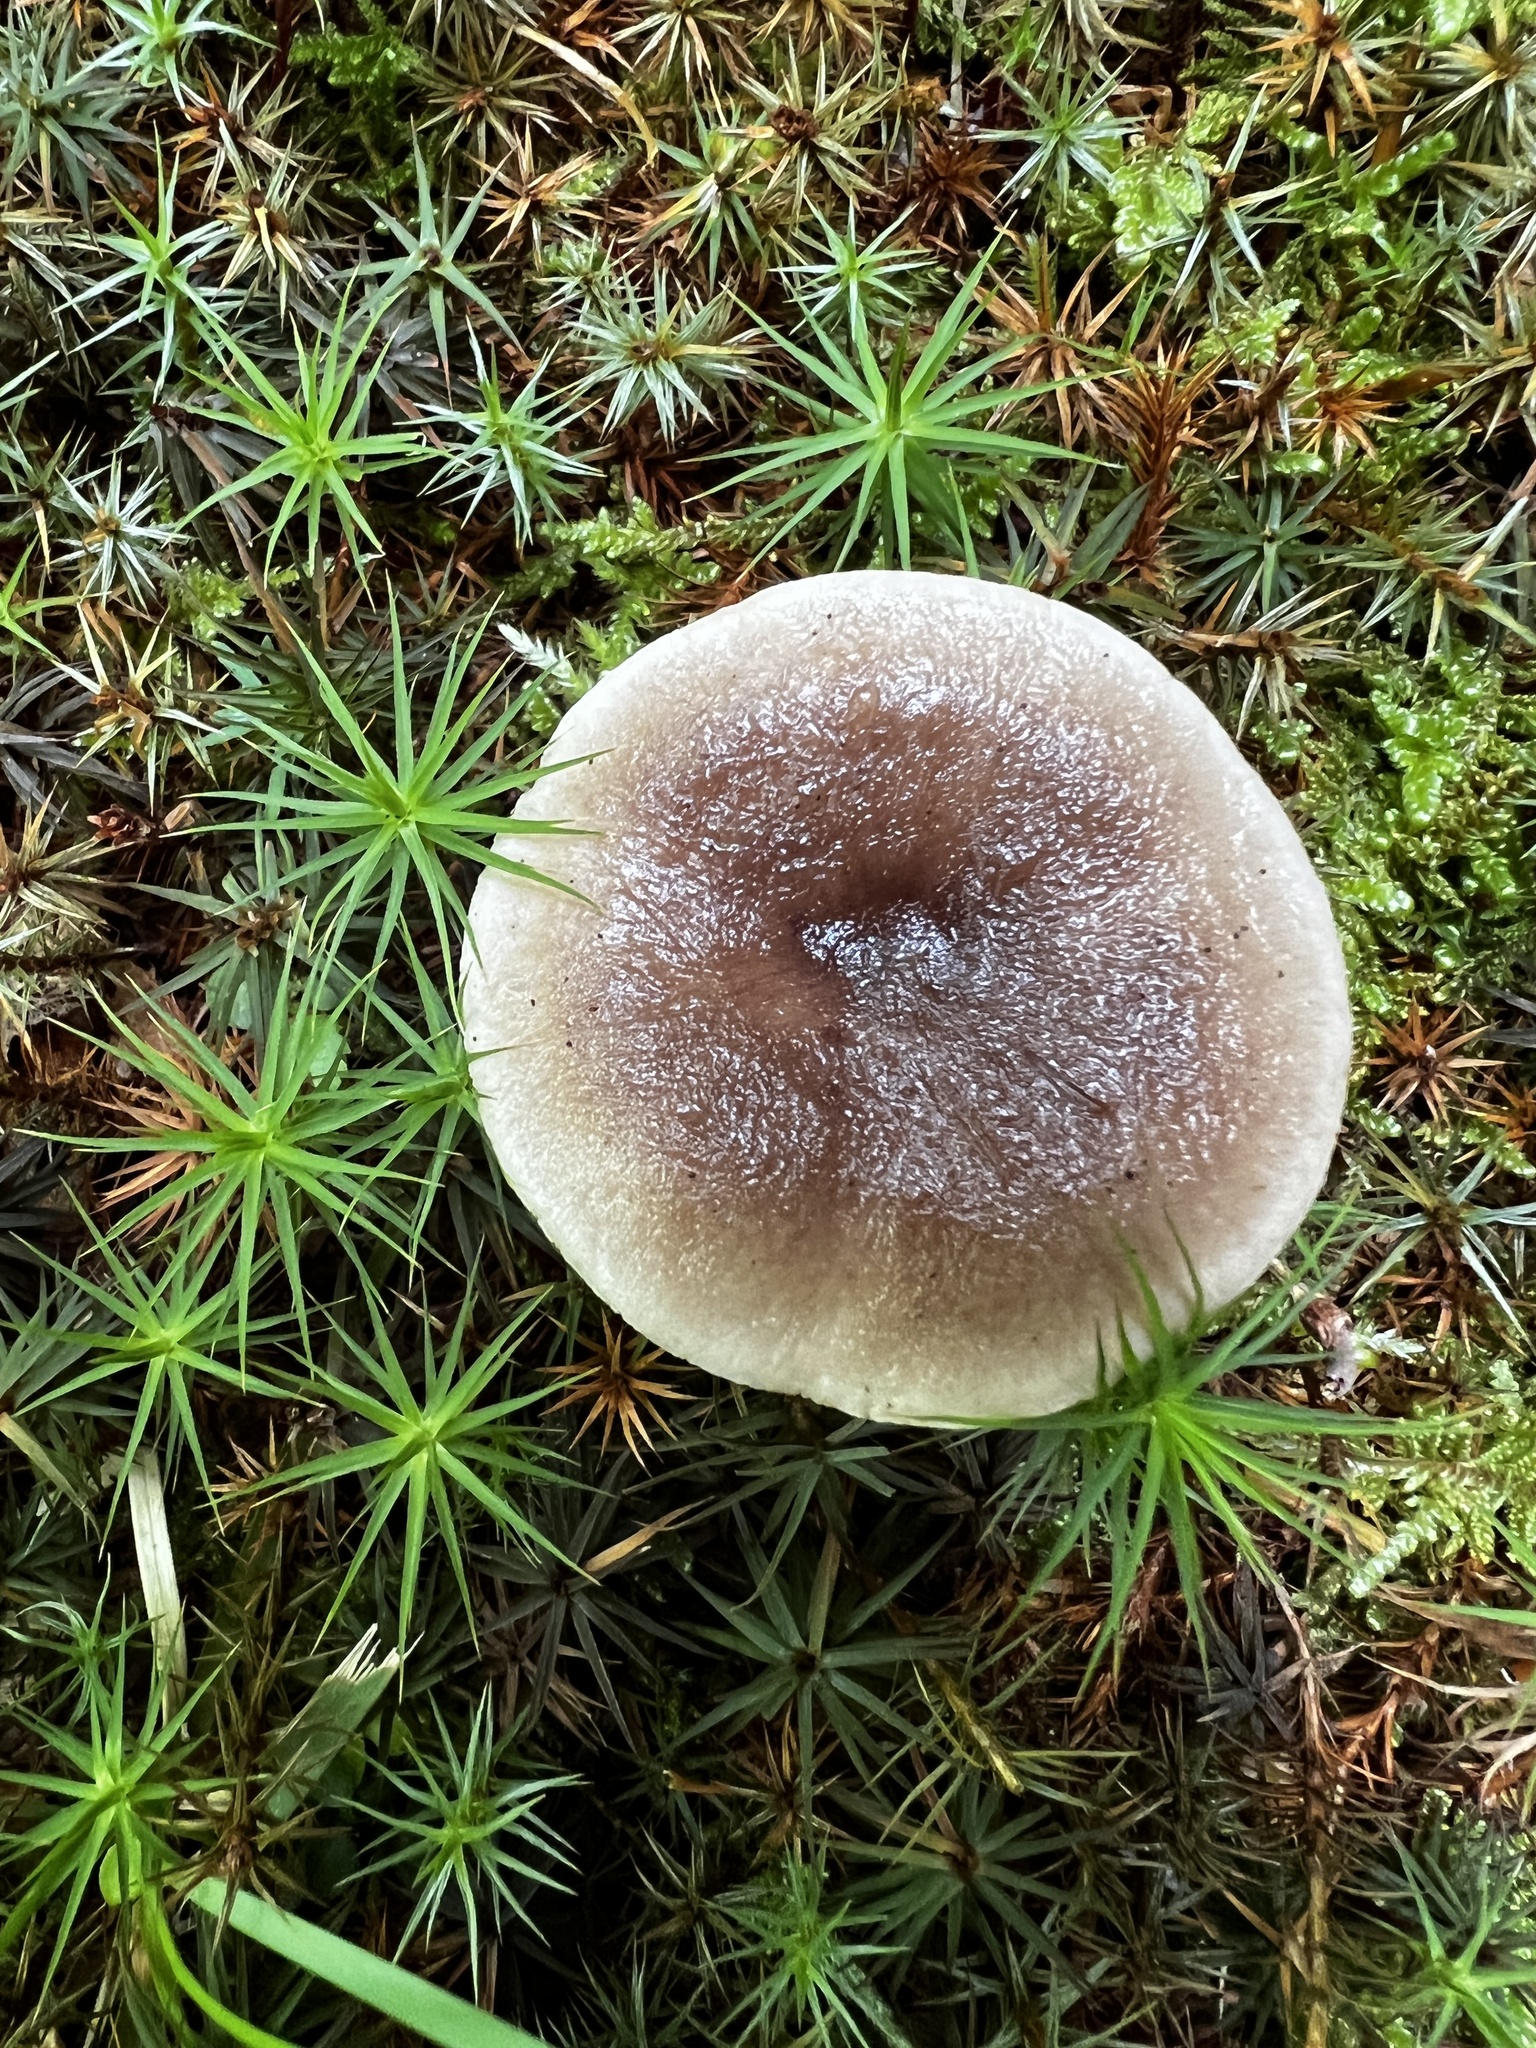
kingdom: Fungi
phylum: Basidiomycota
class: Agaricomycetes
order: Russulales
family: Russulaceae
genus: Lactarius
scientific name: Lactarius mucidus
